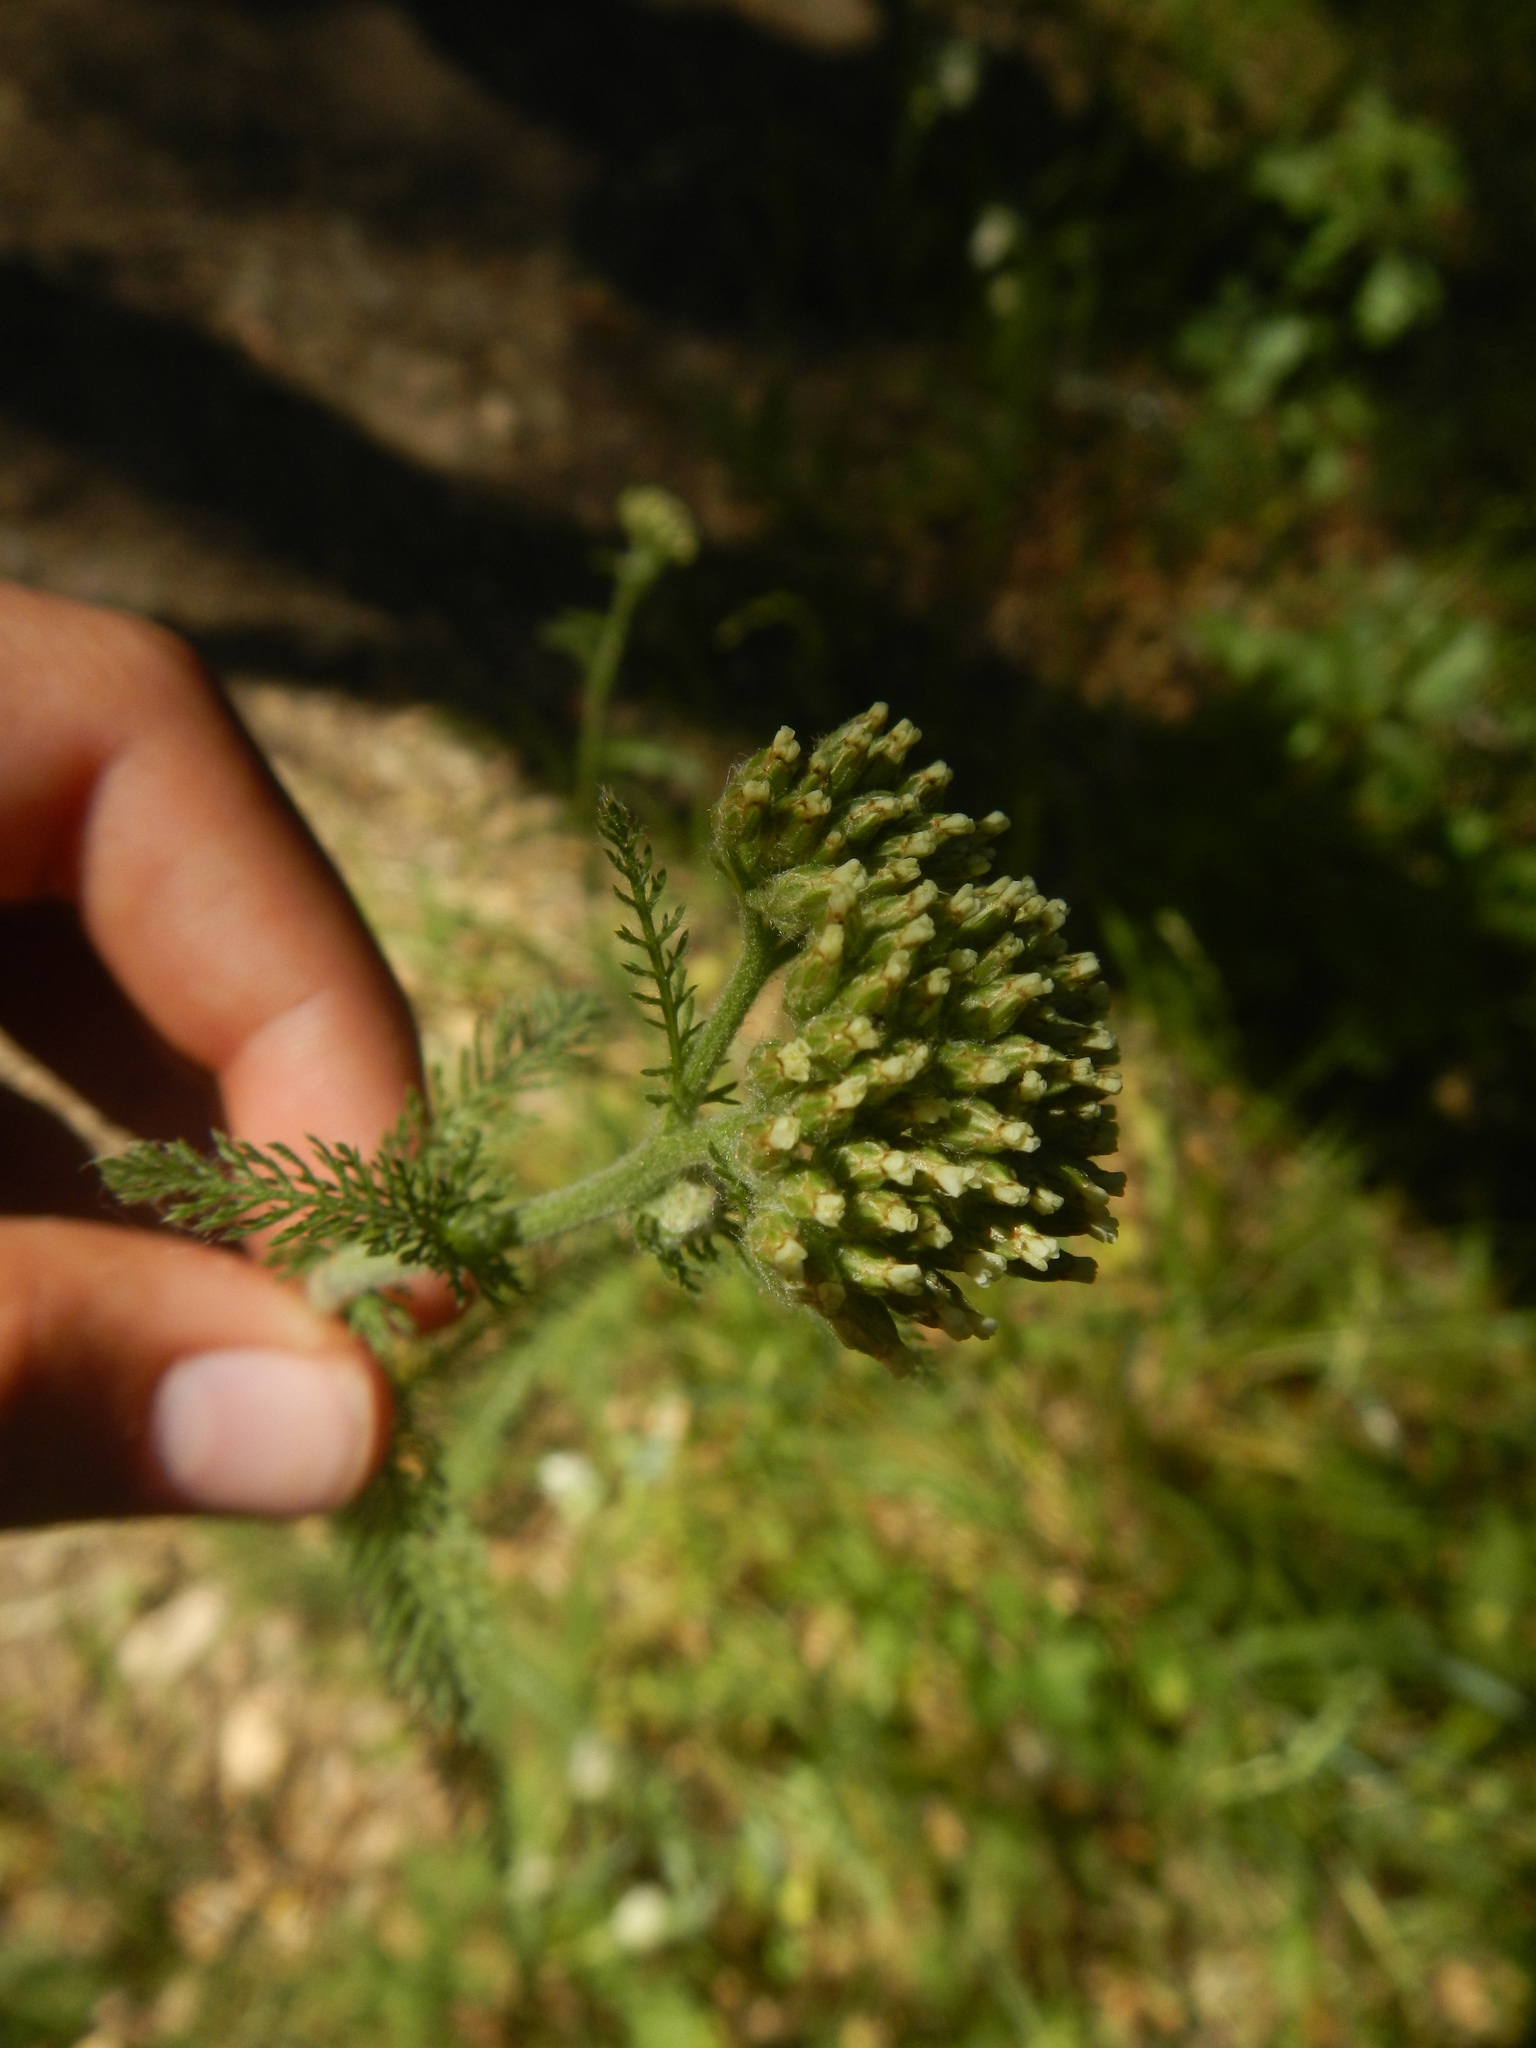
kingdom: Plantae
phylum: Tracheophyta
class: Magnoliopsida
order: Asterales
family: Asteraceae
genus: Achillea
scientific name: Achillea millefolium
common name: Yarrow
